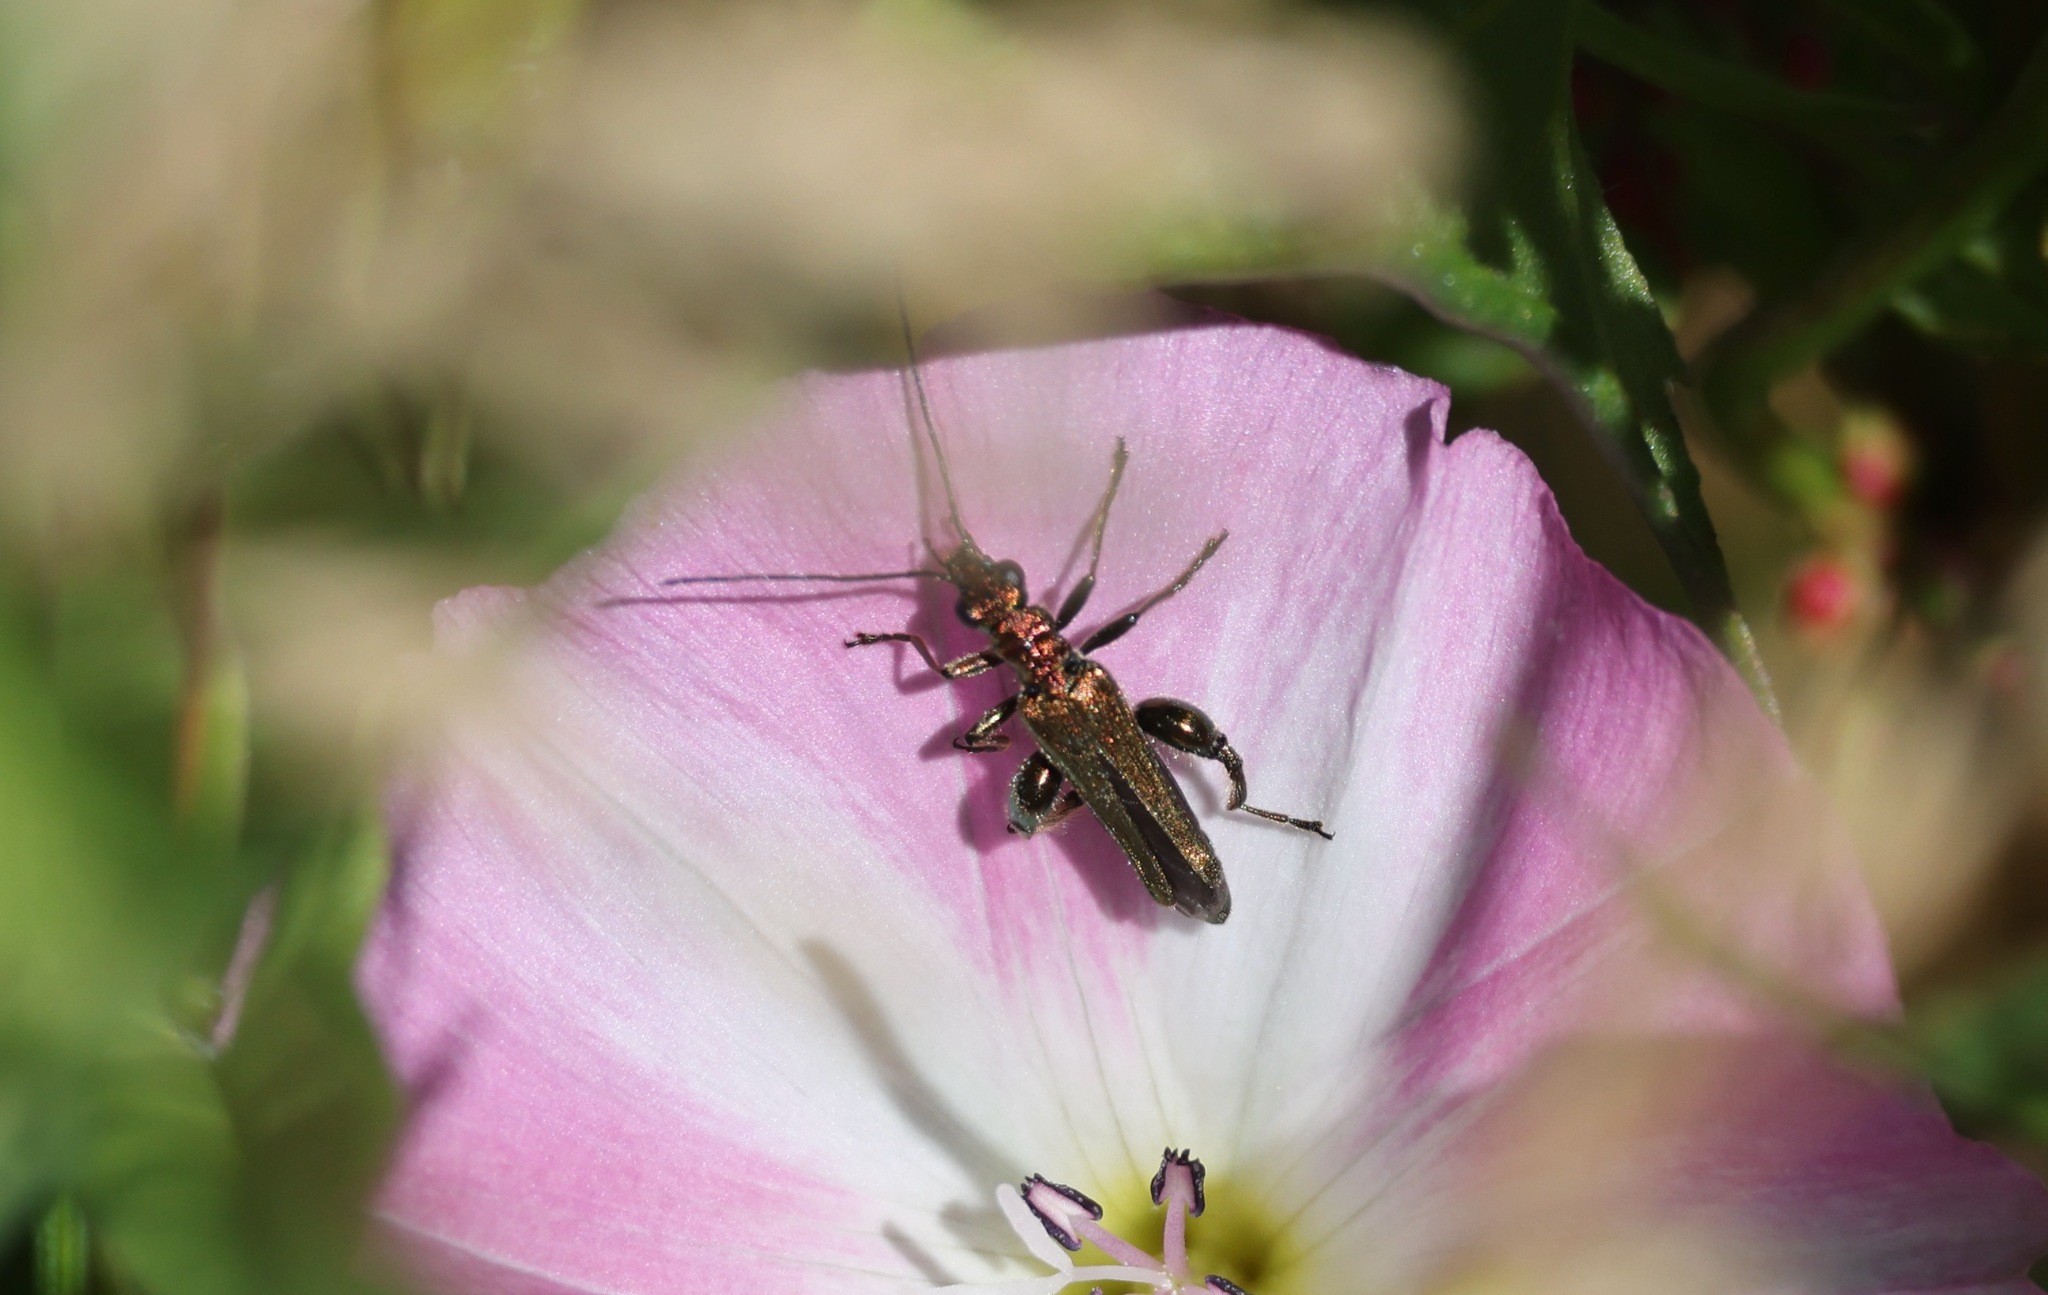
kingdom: Animalia
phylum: Arthropoda
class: Insecta
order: Coleoptera
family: Oedemeridae
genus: Oedemera
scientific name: Oedemera nobilis
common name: Swollen-thighed beetle
